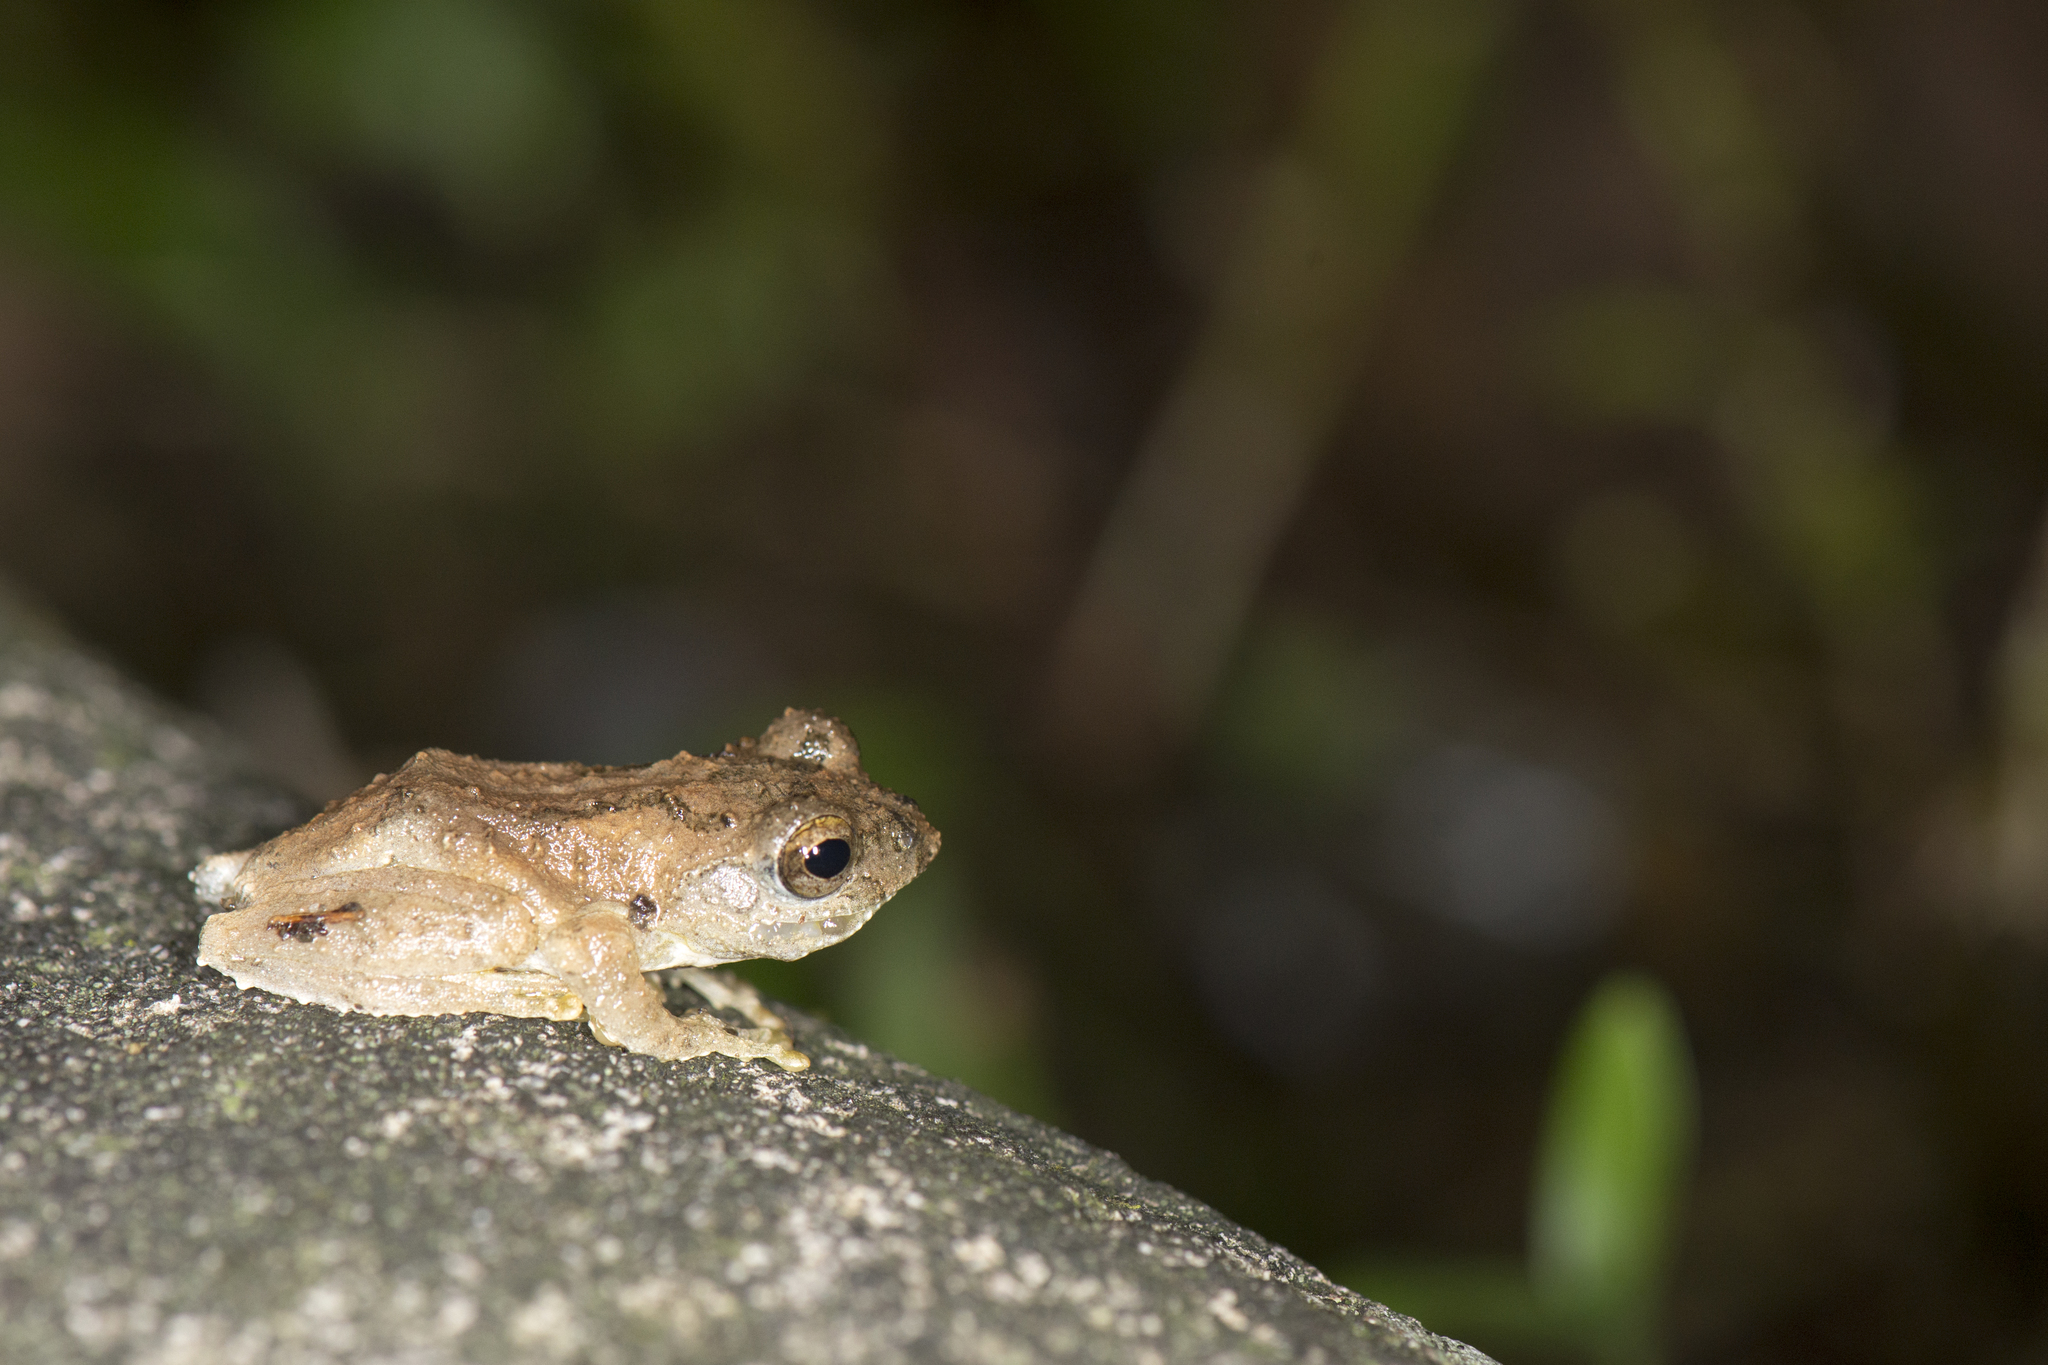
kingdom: Animalia
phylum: Chordata
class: Amphibia
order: Anura
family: Rhacophoridae
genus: Kurixalus
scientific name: Kurixalus idiootocus
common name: Temple treefrog
